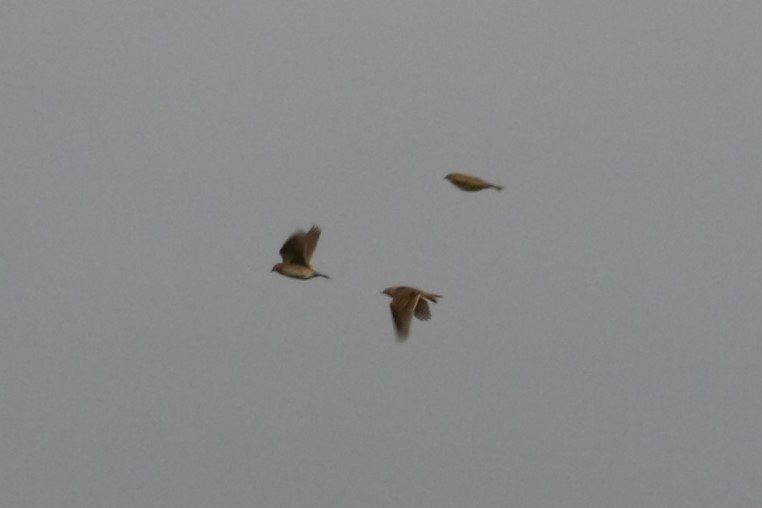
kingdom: Animalia
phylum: Chordata
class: Aves
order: Passeriformes
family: Alaudidae
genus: Alauda
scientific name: Alauda arvensis
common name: Eurasian skylark
